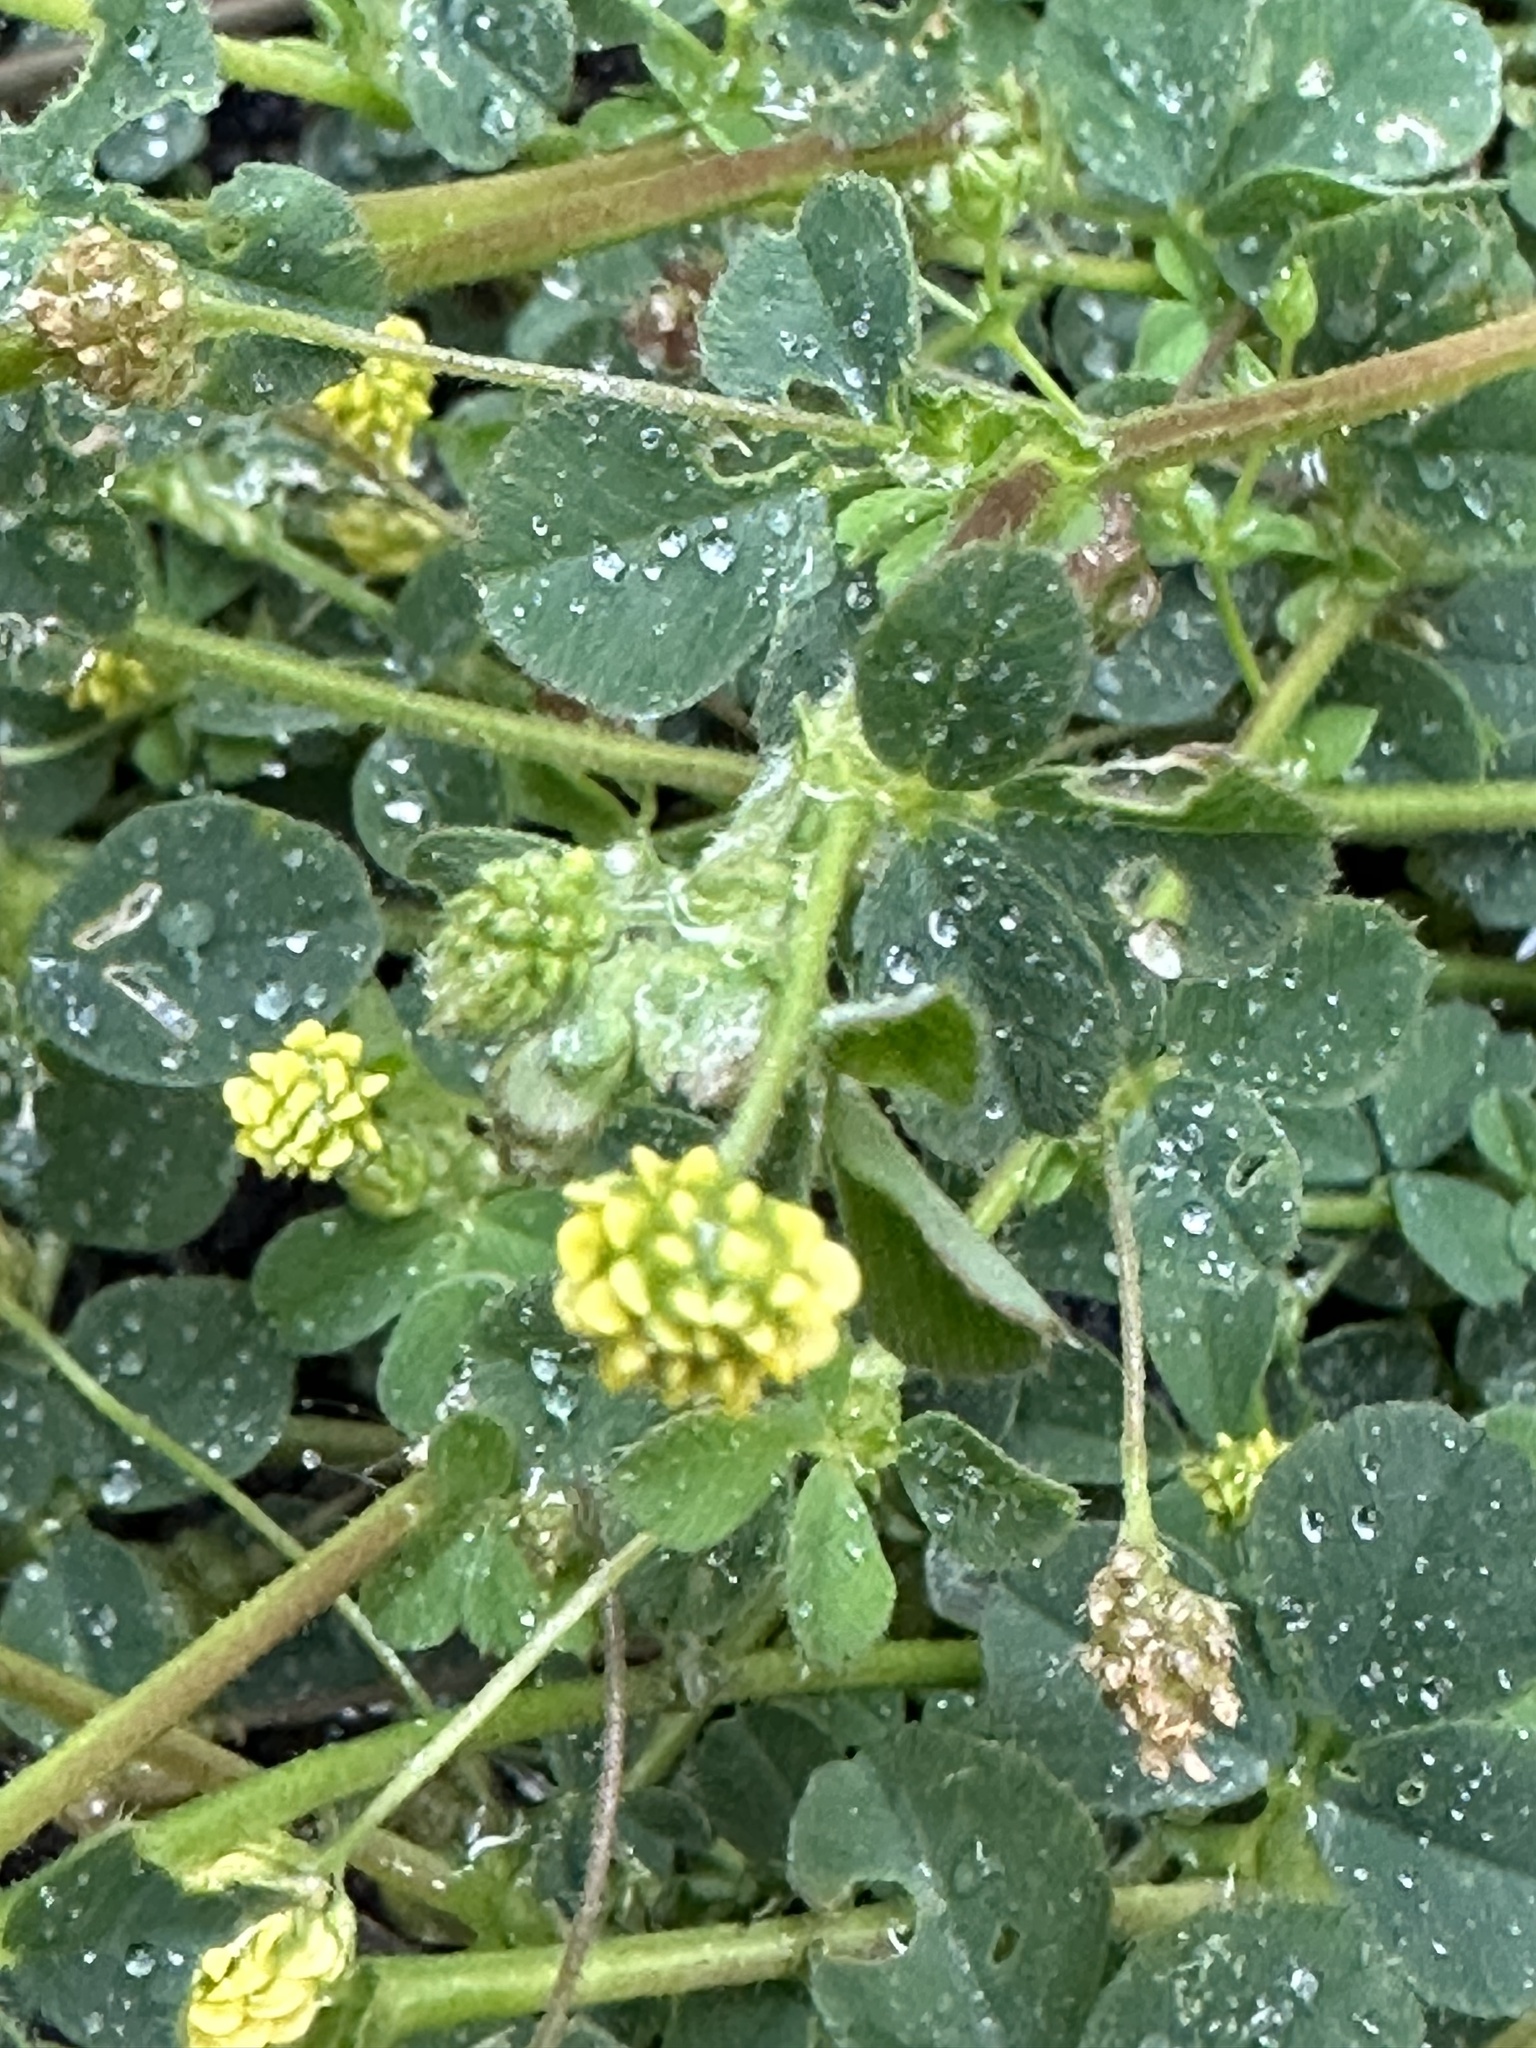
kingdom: Plantae
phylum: Tracheophyta
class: Magnoliopsida
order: Fabales
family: Fabaceae
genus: Medicago
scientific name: Medicago lupulina
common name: Black medick
